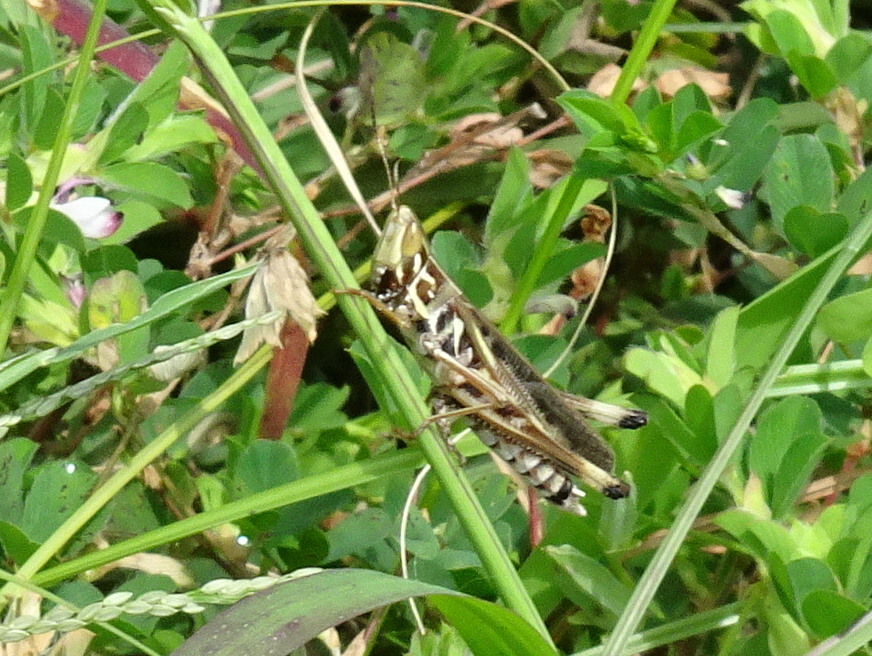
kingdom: Animalia
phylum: Arthropoda
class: Insecta
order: Orthoptera
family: Acrididae
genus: Syrbula
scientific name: Syrbula admirabilis
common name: Handsome grasshopper
